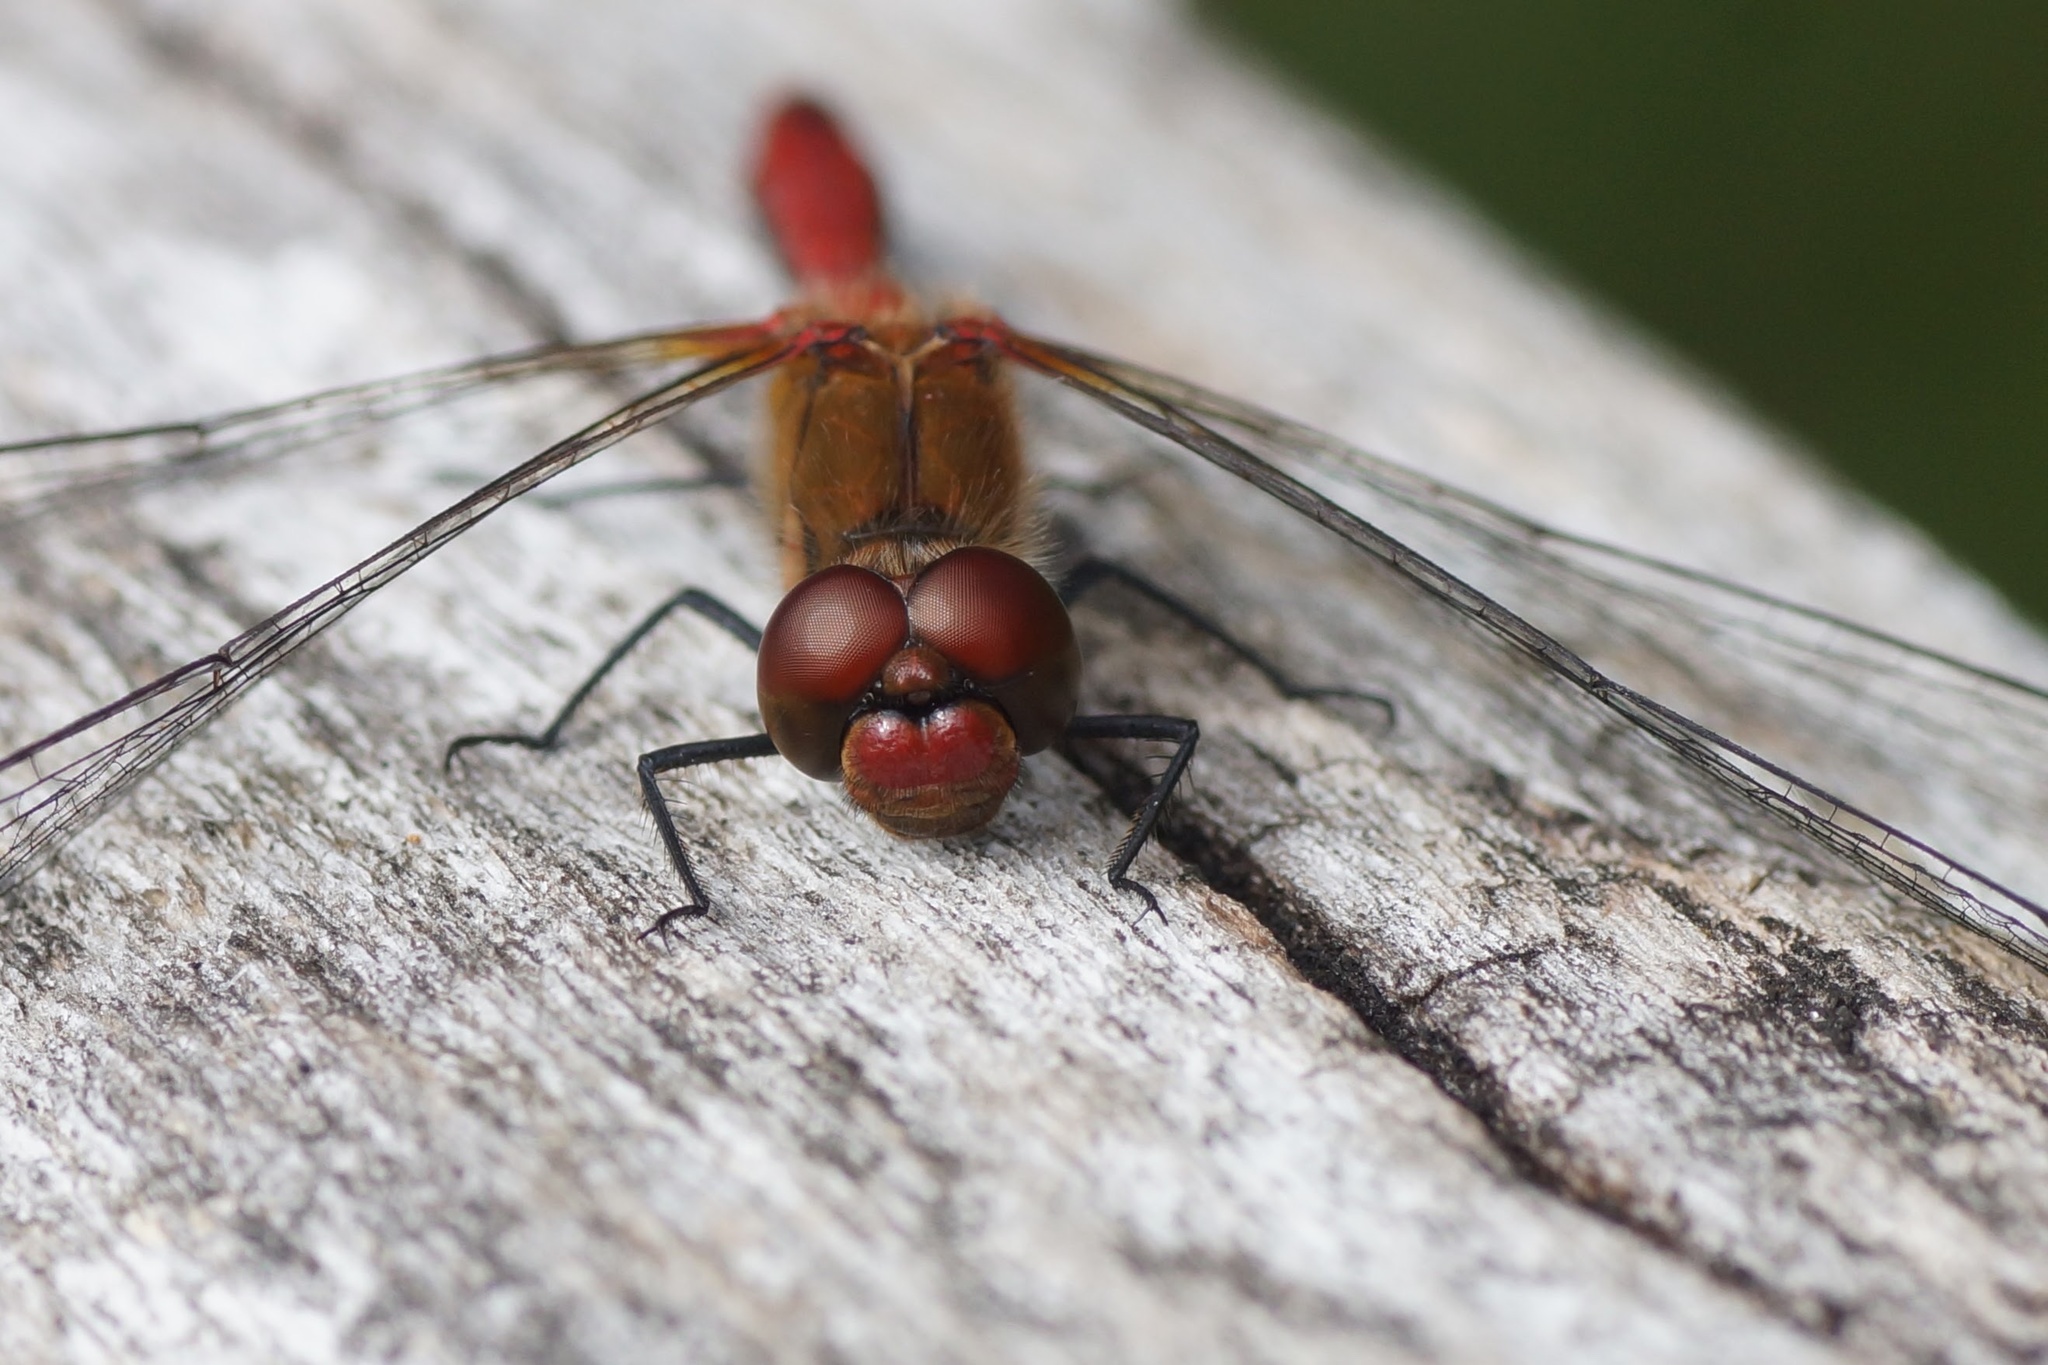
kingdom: Animalia
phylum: Arthropoda
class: Insecta
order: Odonata
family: Libellulidae
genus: Sympetrum
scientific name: Sympetrum sanguineum
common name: Ruddy darter
